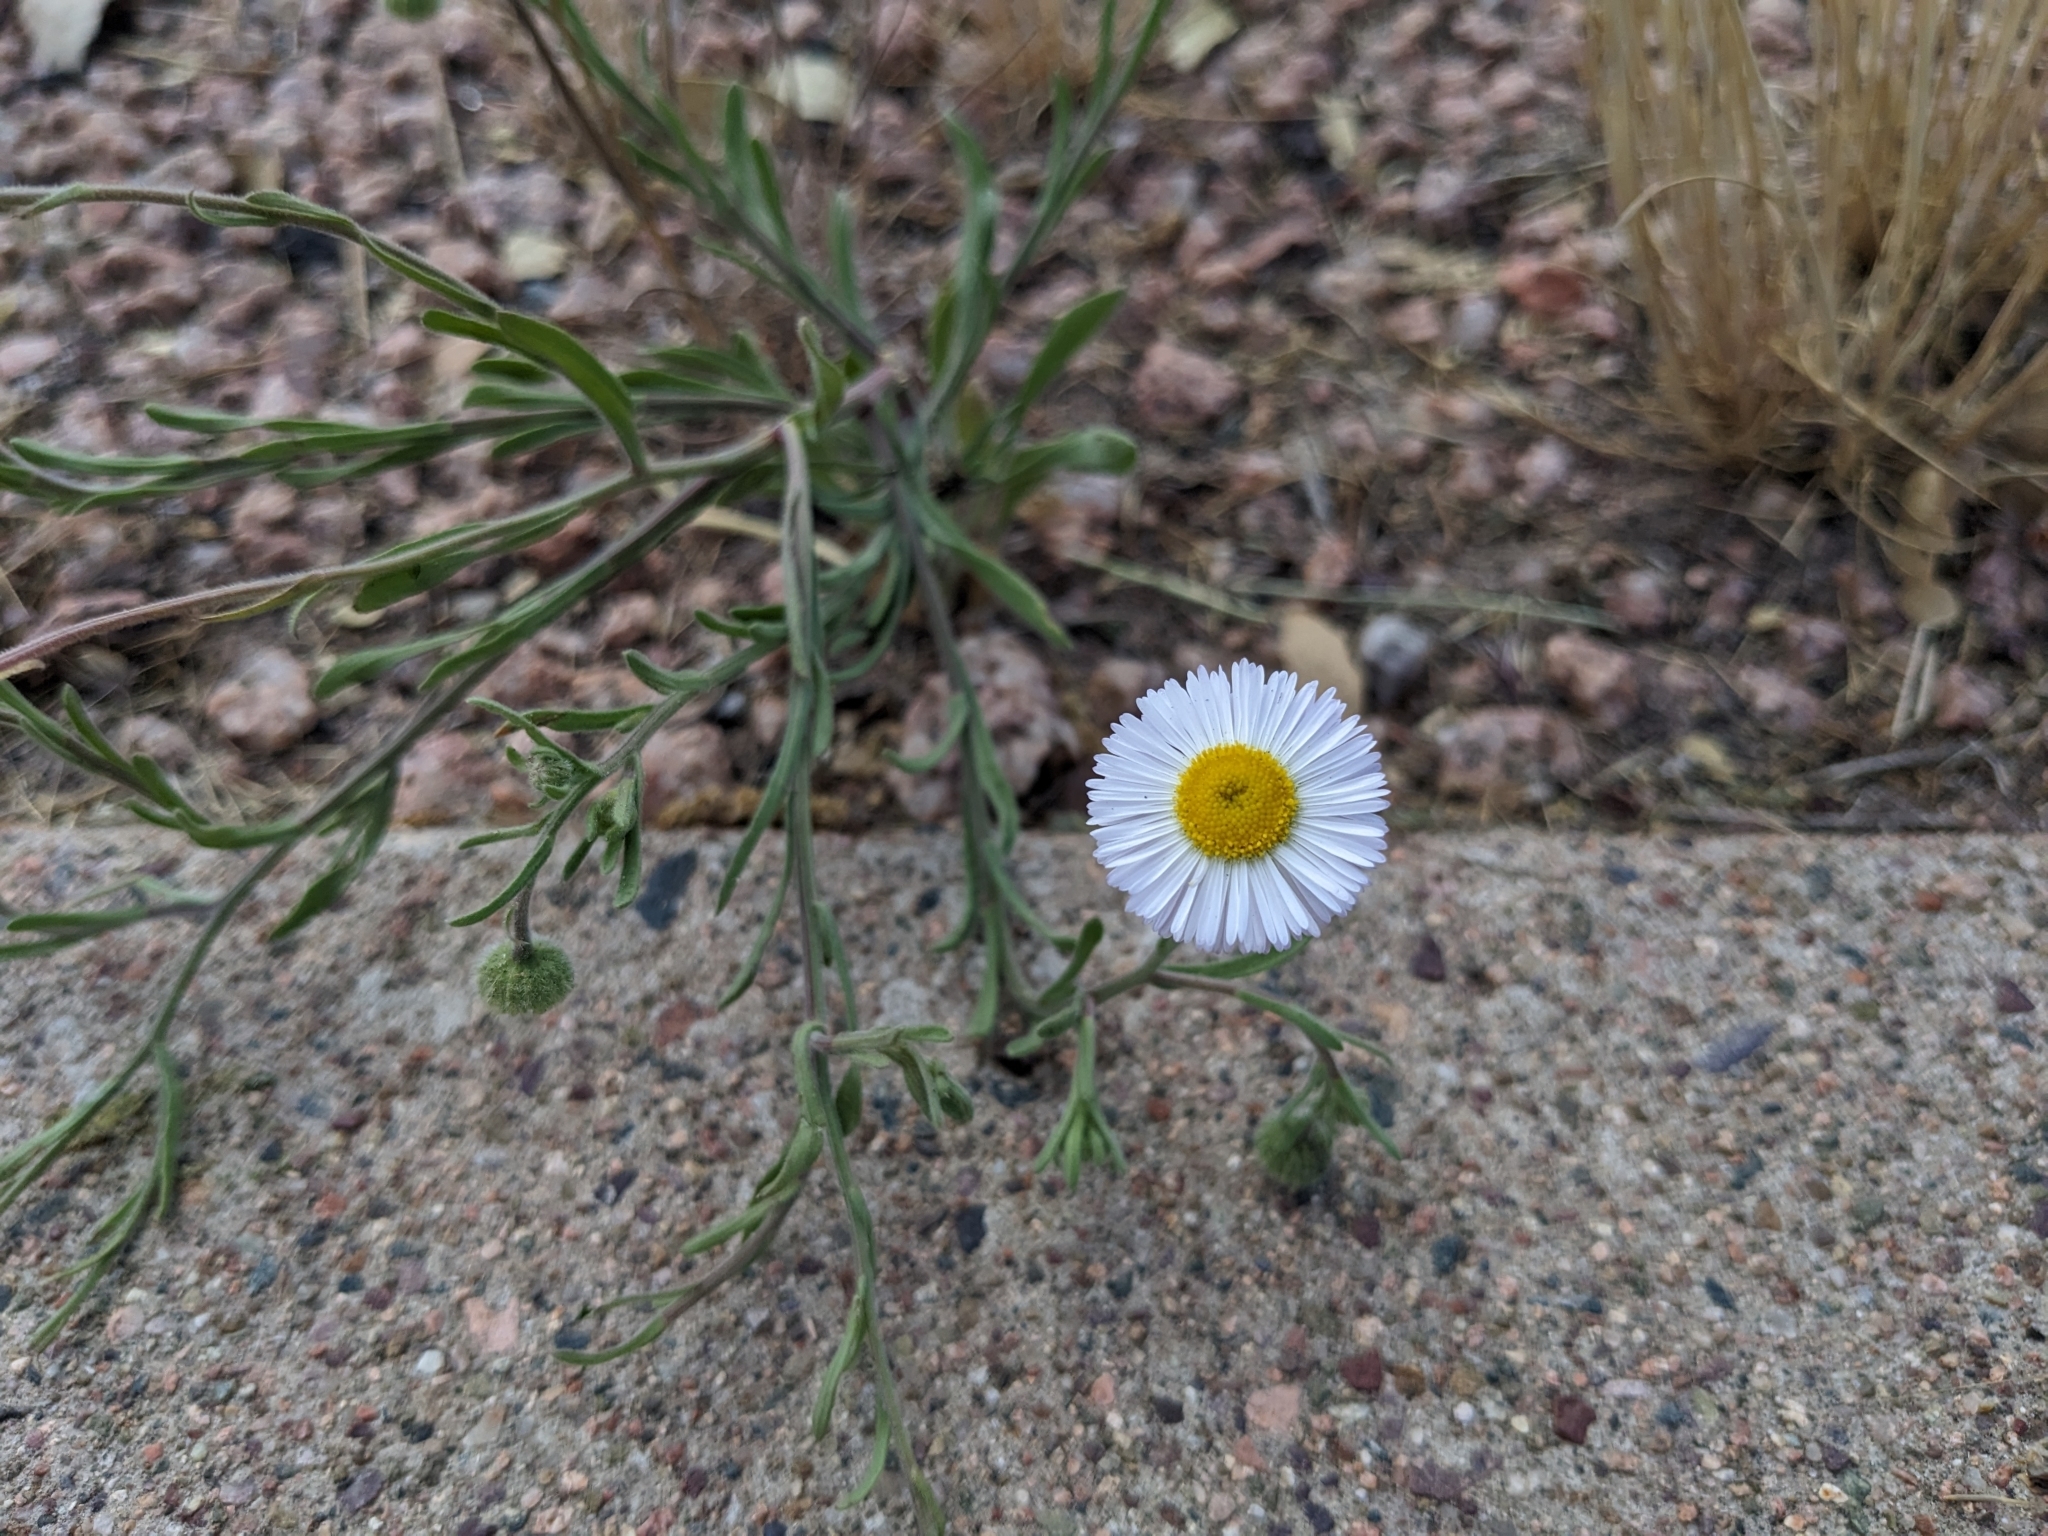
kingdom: Plantae
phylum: Tracheophyta
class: Magnoliopsida
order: Asterales
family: Asteraceae
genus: Erigeron
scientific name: Erigeron divergens
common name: Diffuse fleabane
